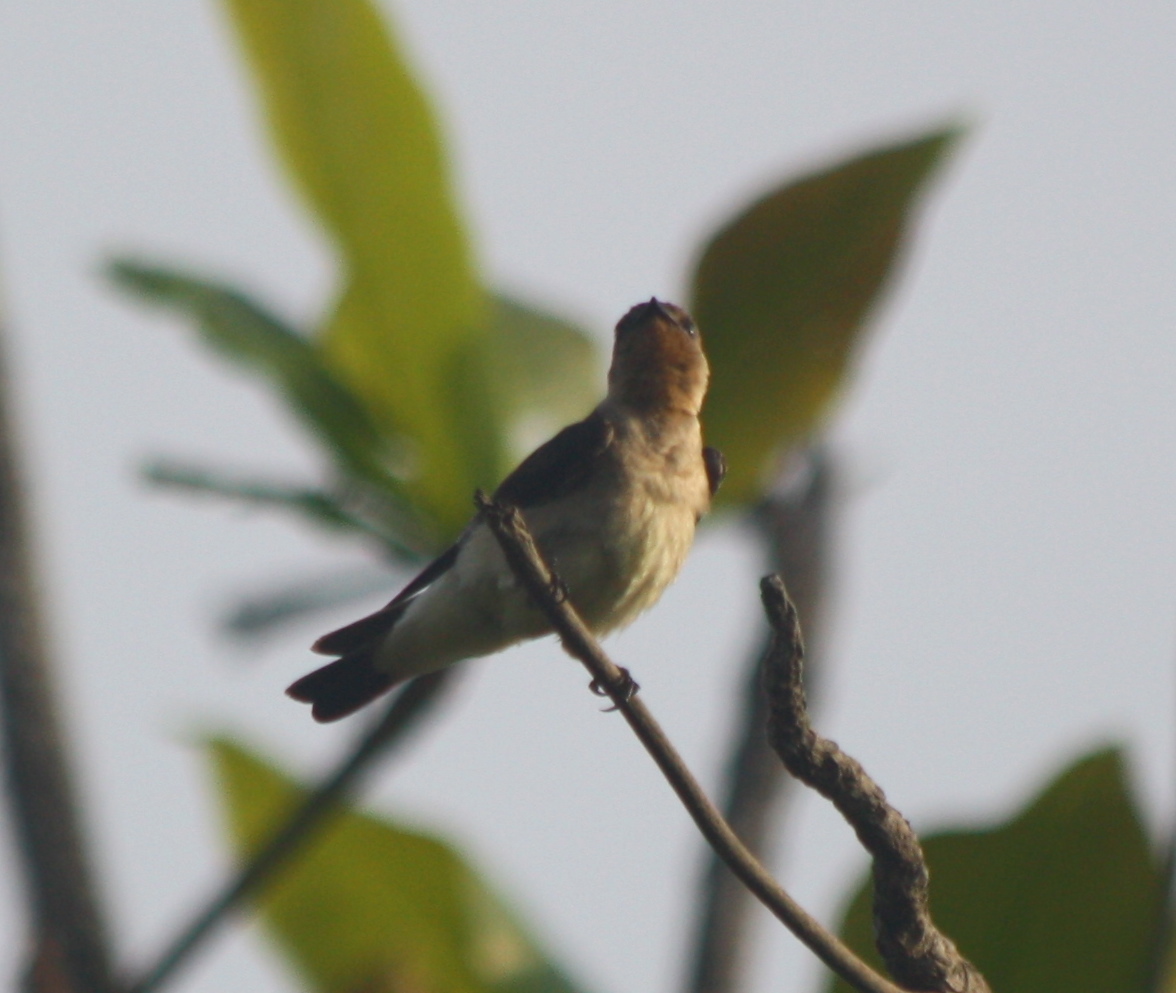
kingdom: Animalia
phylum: Chordata
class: Aves
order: Passeriformes
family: Hirundinidae
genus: Stelgidopteryx
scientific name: Stelgidopteryx ruficollis
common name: Southern rough-winged swallow
